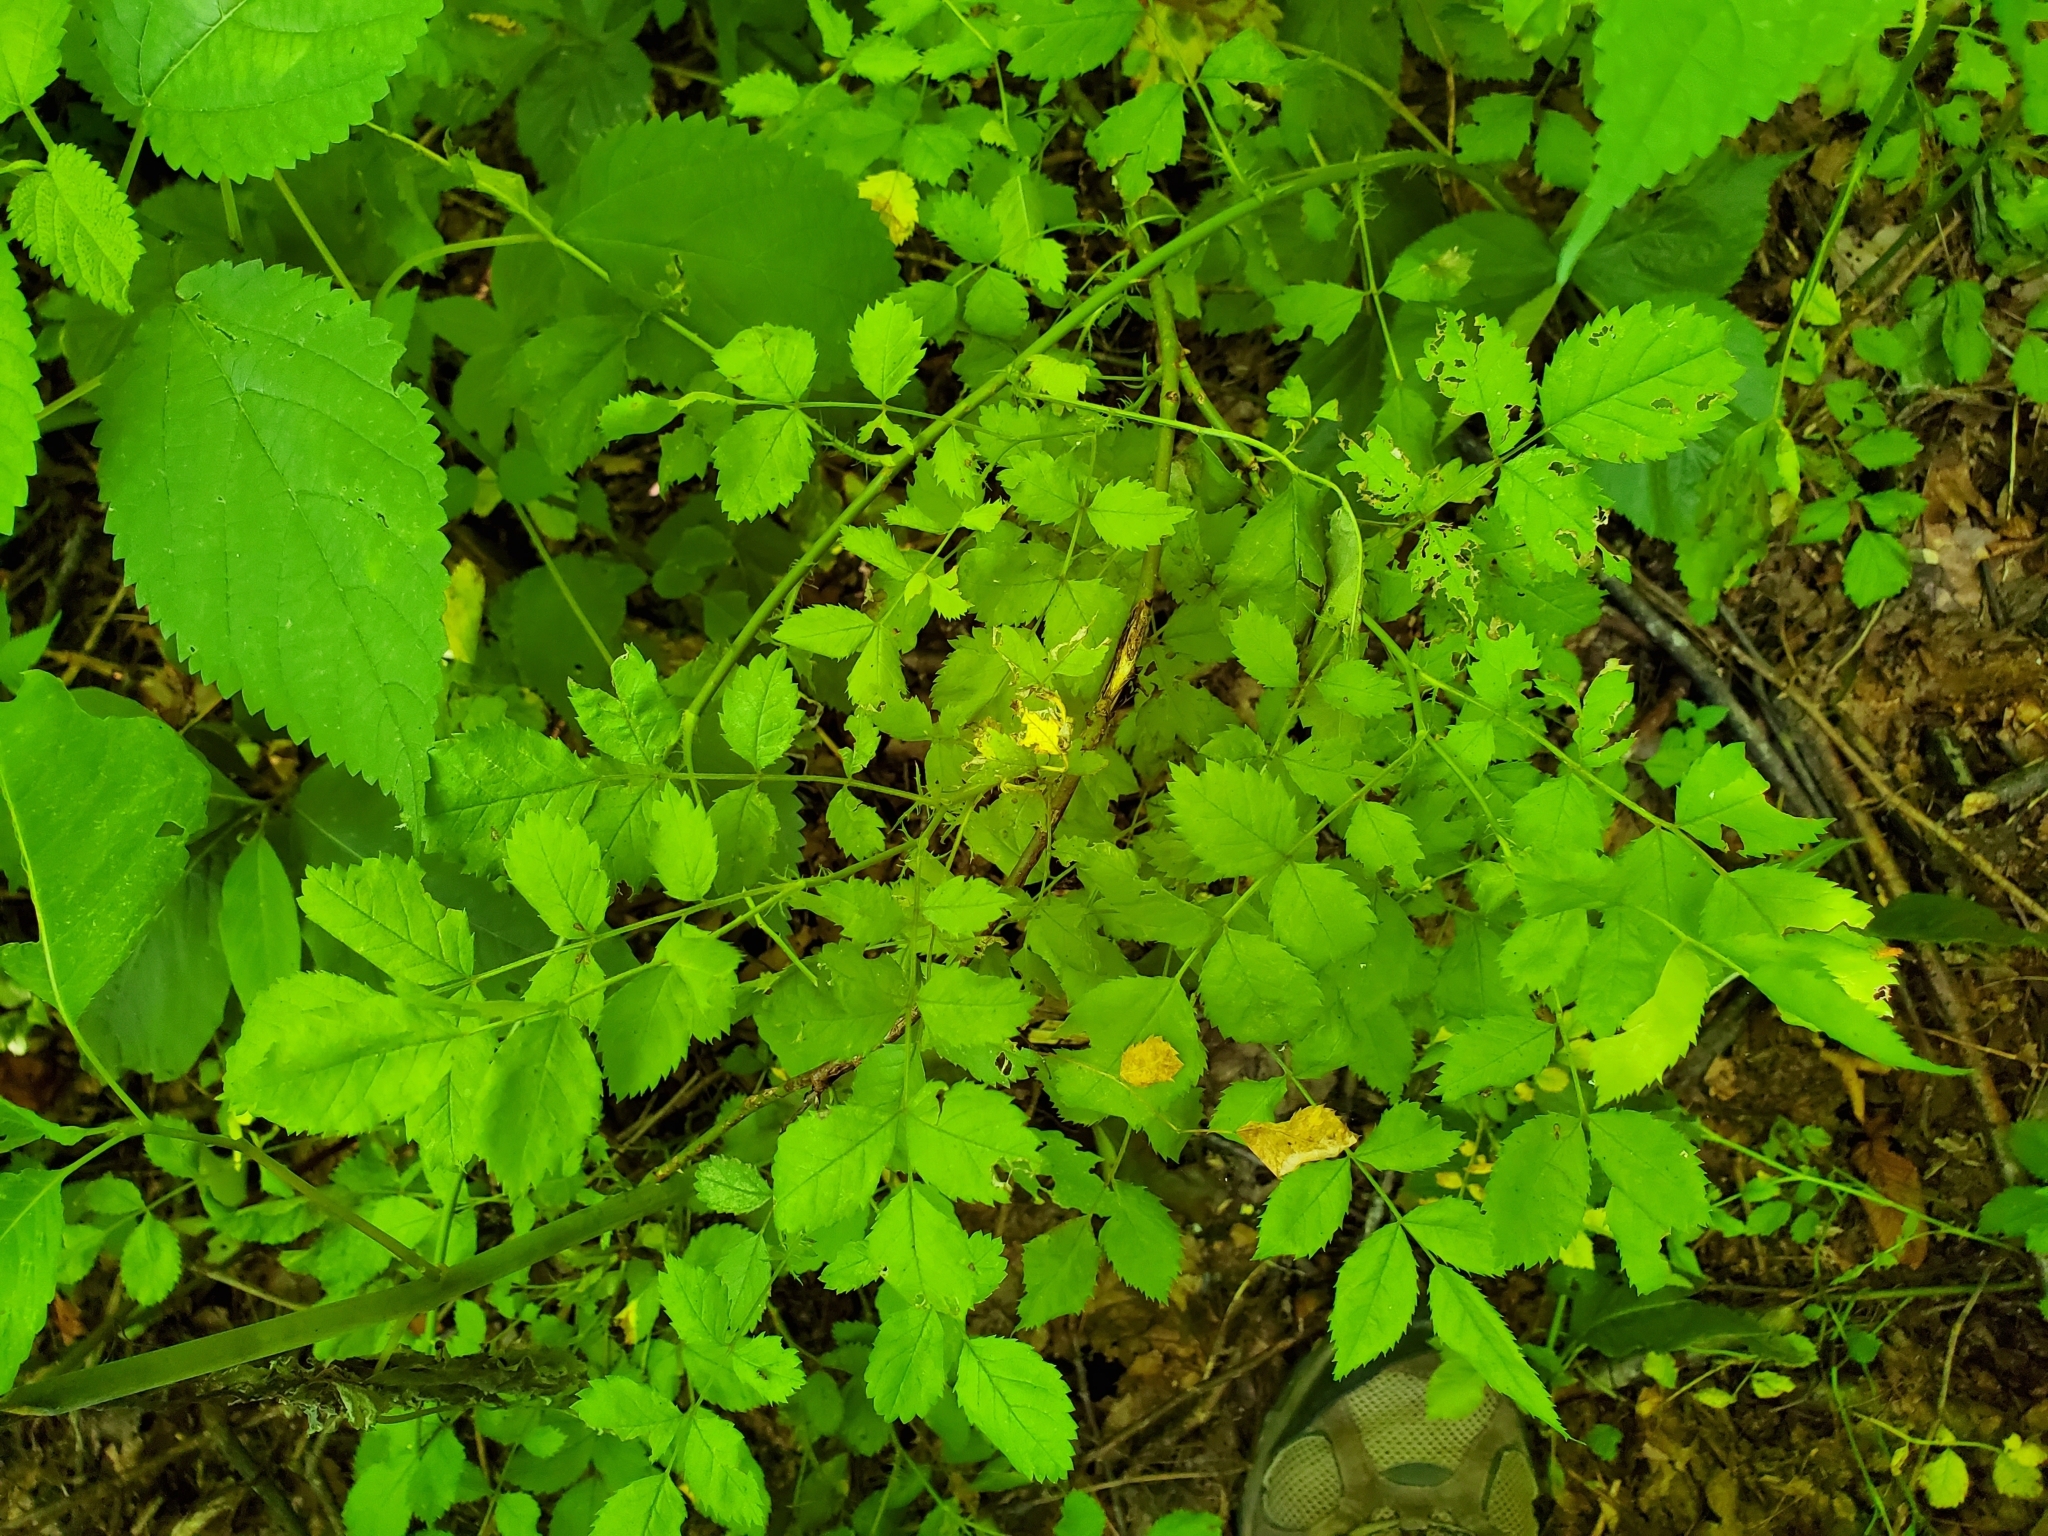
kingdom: Plantae
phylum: Tracheophyta
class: Magnoliopsida
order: Rosales
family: Rosaceae
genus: Rosa
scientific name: Rosa multiflora
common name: Multiflora rose
